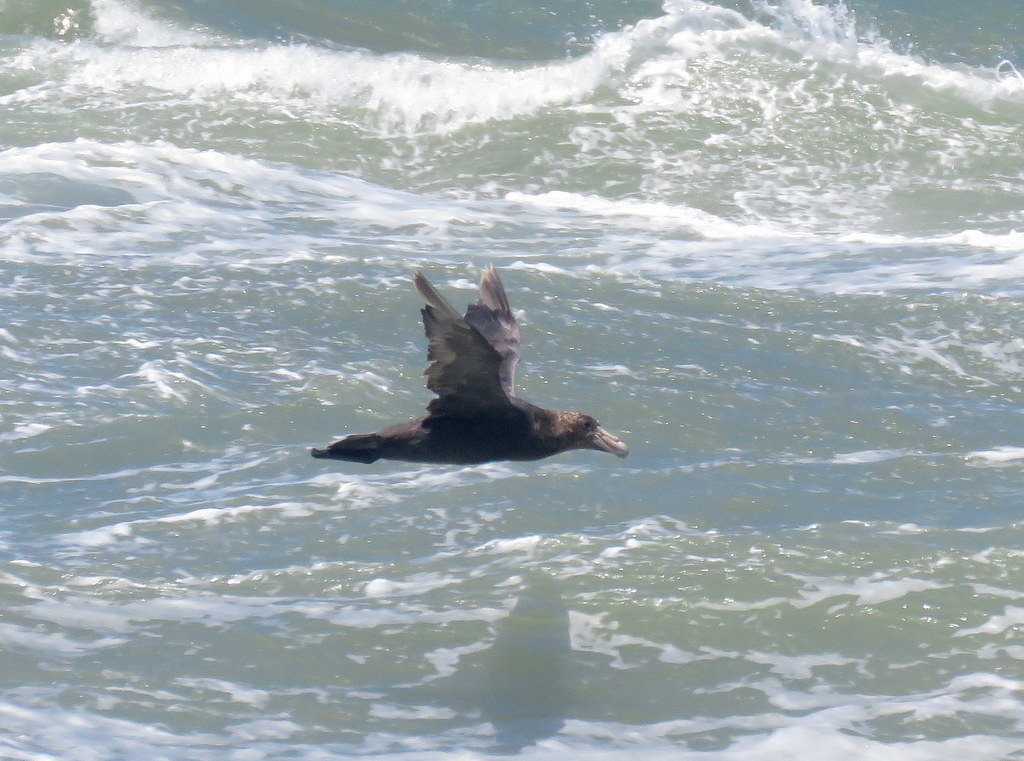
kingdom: Animalia
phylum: Chordata
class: Aves
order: Procellariiformes
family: Procellariidae
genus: Macronectes
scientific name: Macronectes giganteus
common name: Southern giant petrel
